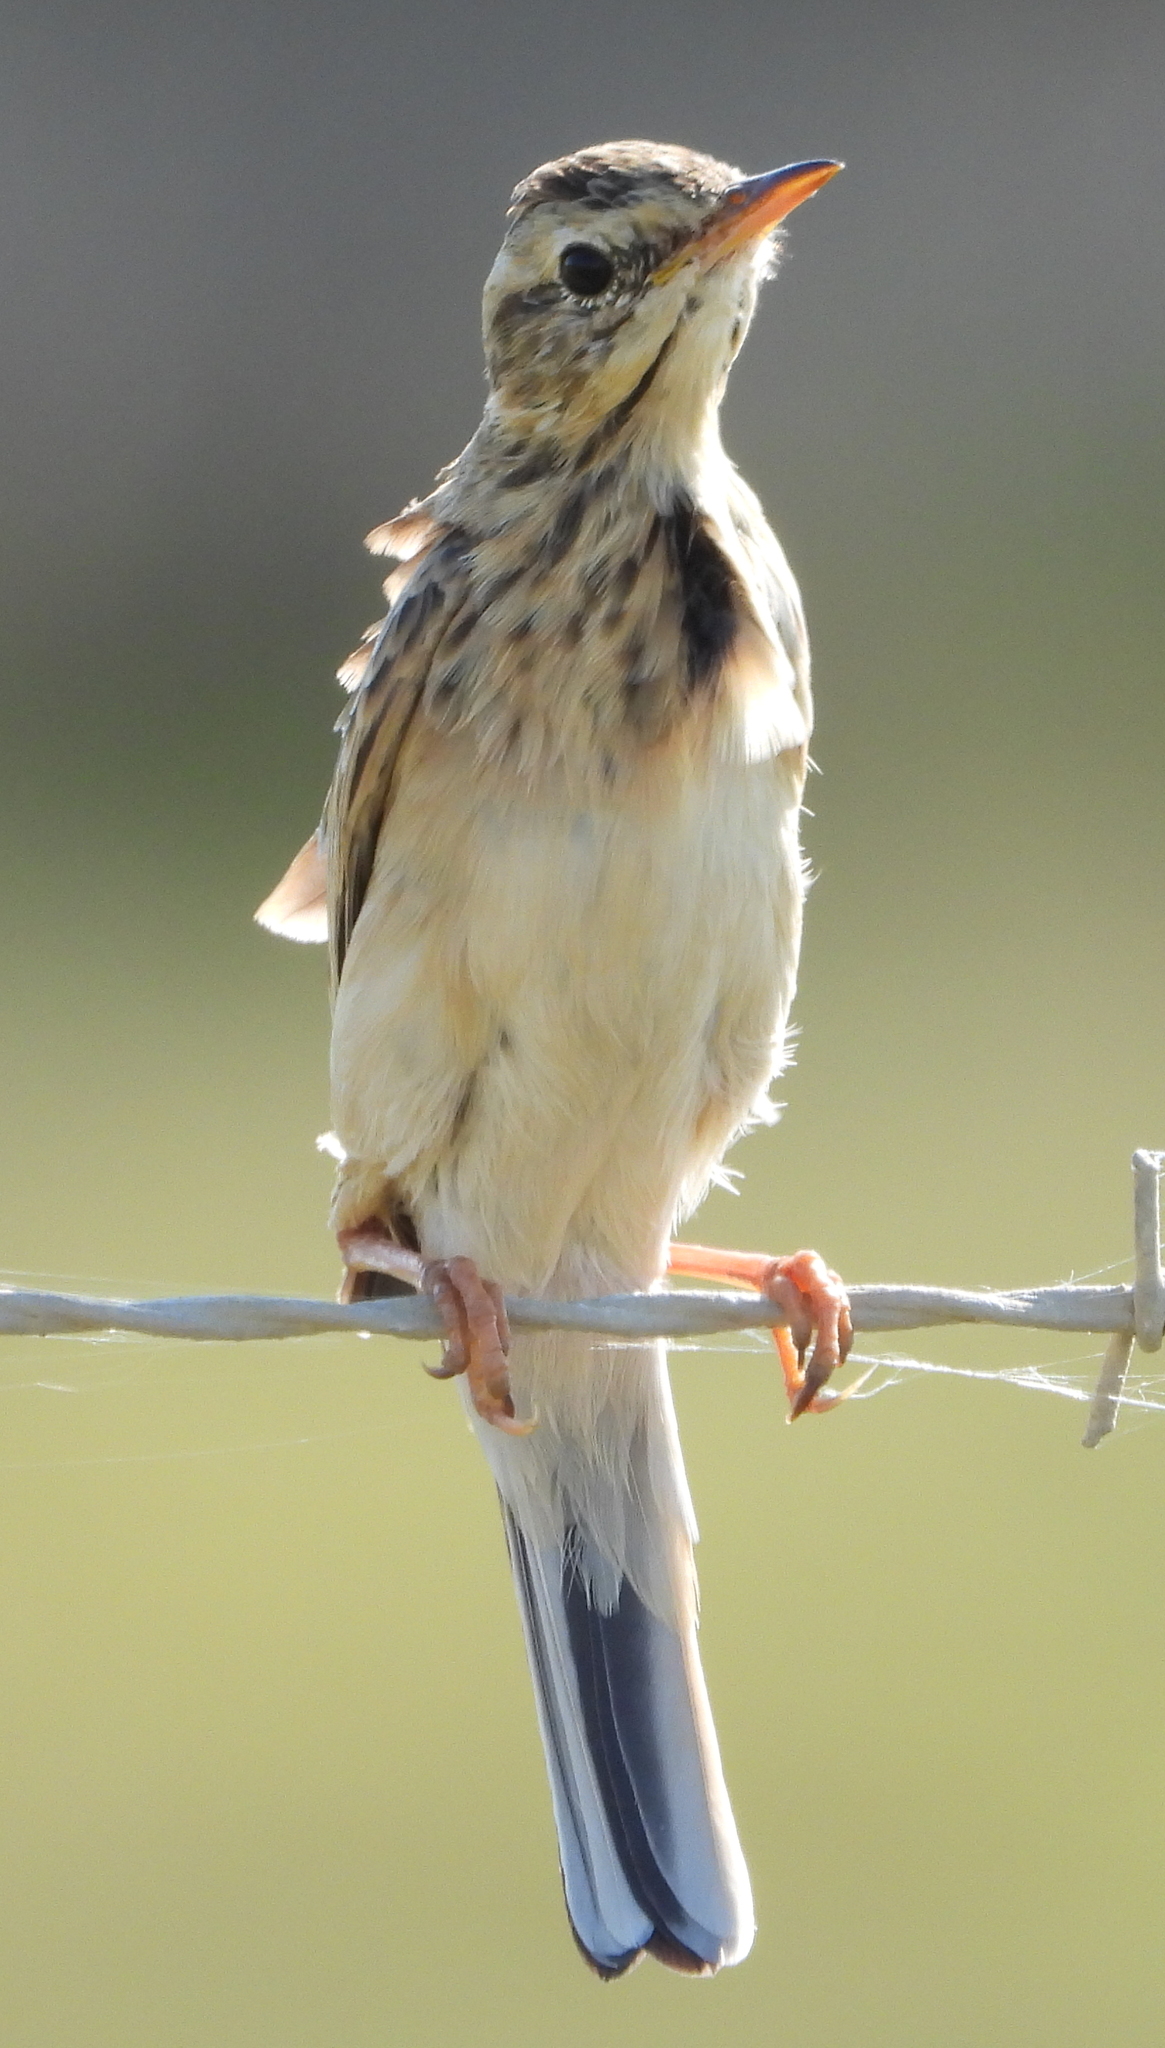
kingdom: Animalia
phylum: Chordata
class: Aves
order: Passeriformes
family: Motacillidae
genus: Anthus
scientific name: Anthus cinnamomeus
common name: African pipit
